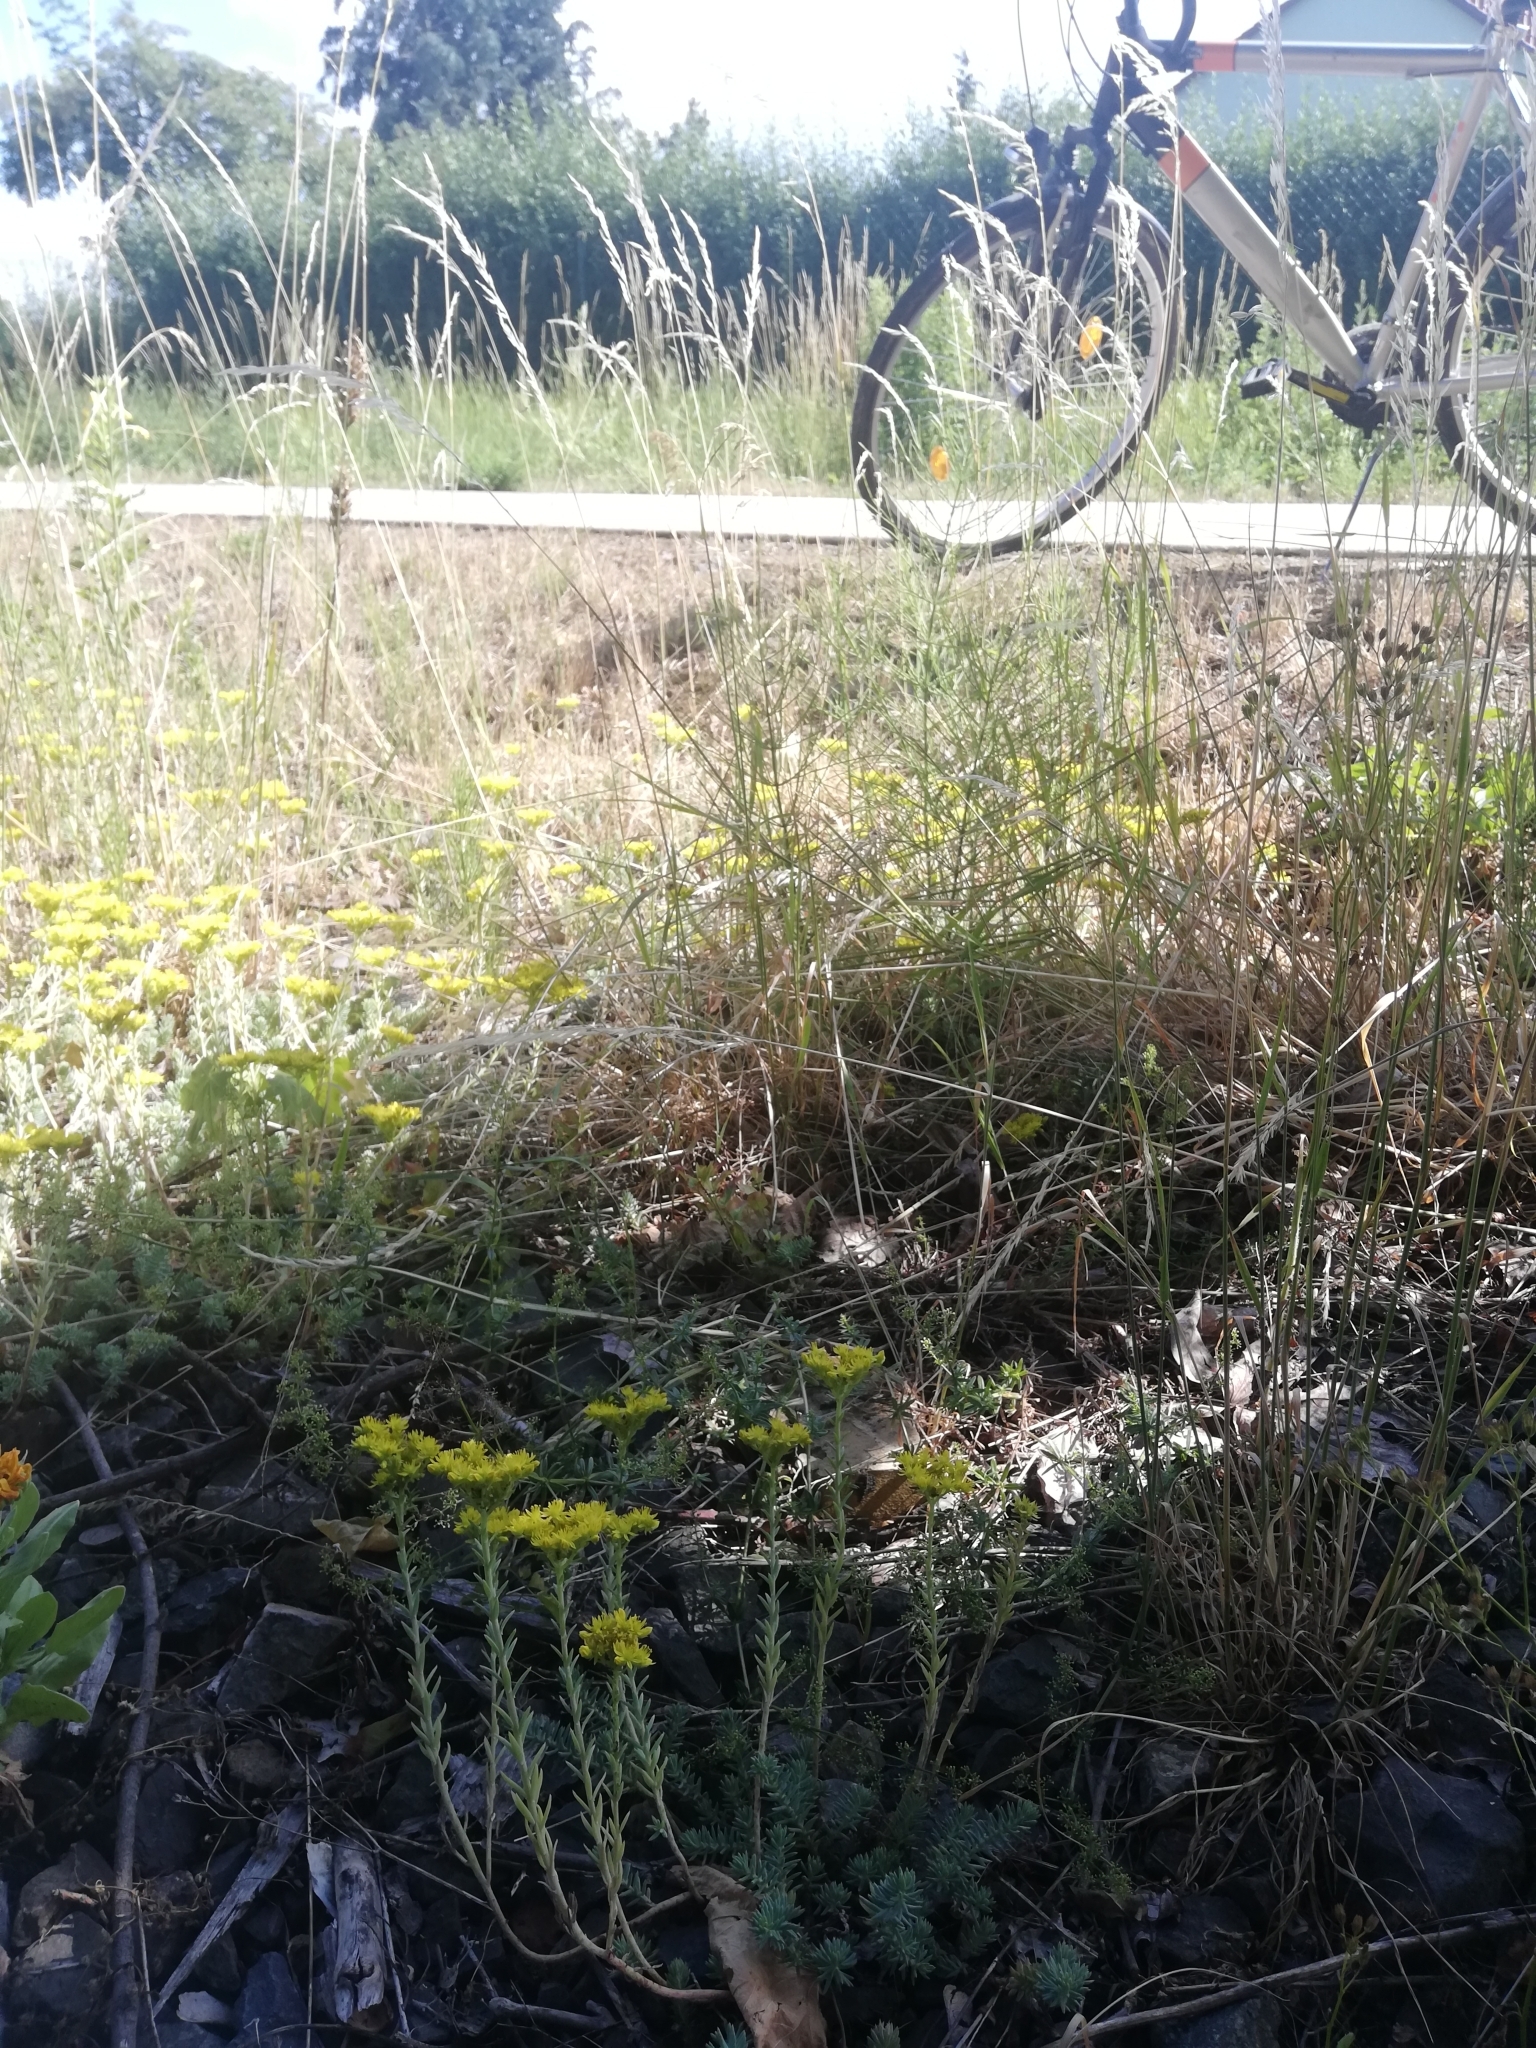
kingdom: Plantae
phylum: Tracheophyta
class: Magnoliopsida
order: Saxifragales
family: Crassulaceae
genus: Petrosedum
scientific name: Petrosedum orientale
